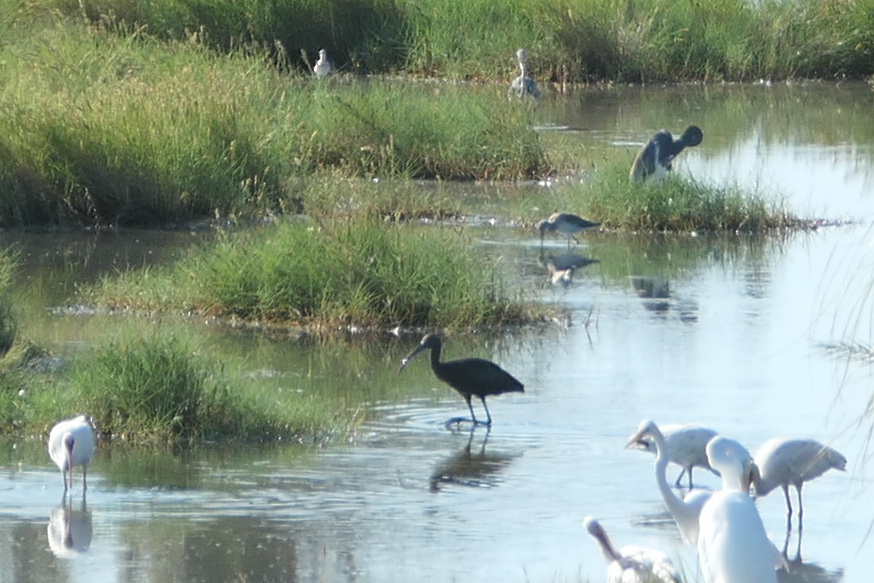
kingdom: Animalia
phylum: Chordata
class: Aves
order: Pelecaniformes
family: Threskiornithidae
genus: Plegadis
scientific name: Plegadis falcinellus
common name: Glossy ibis
